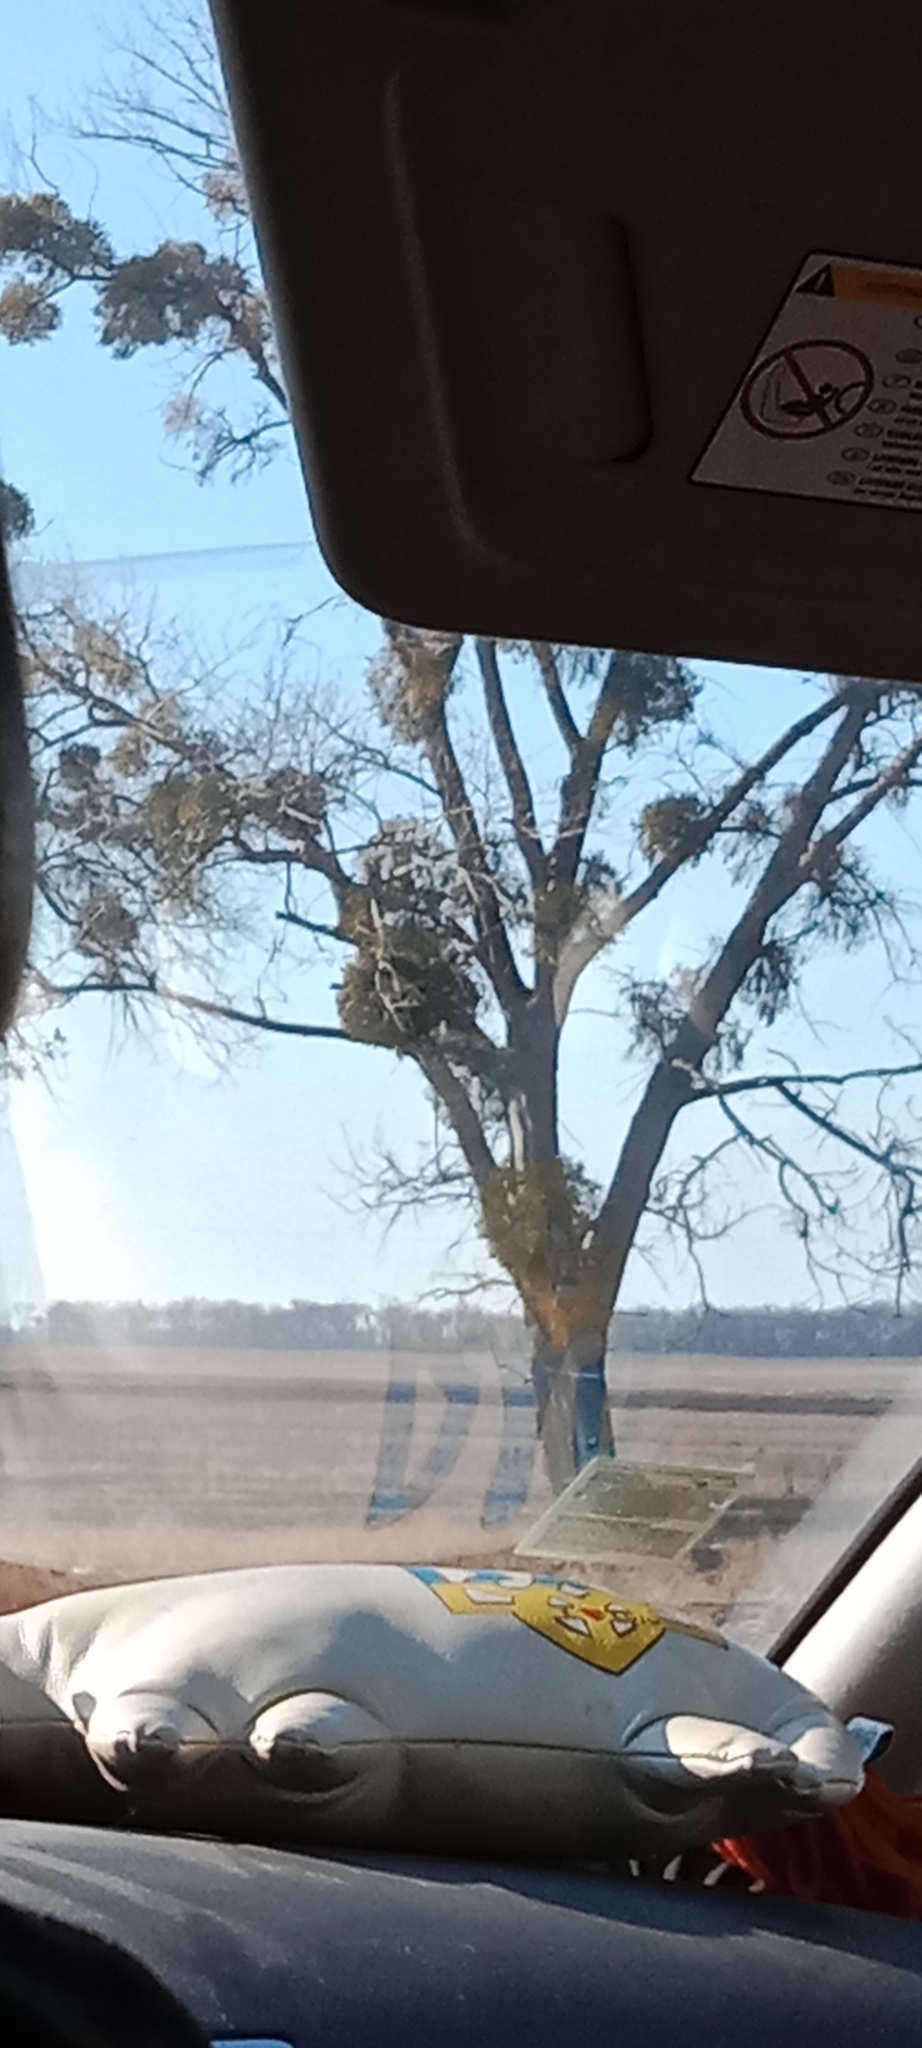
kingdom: Plantae
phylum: Tracheophyta
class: Magnoliopsida
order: Santalales
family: Viscaceae
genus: Viscum
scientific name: Viscum album
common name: Mistletoe
